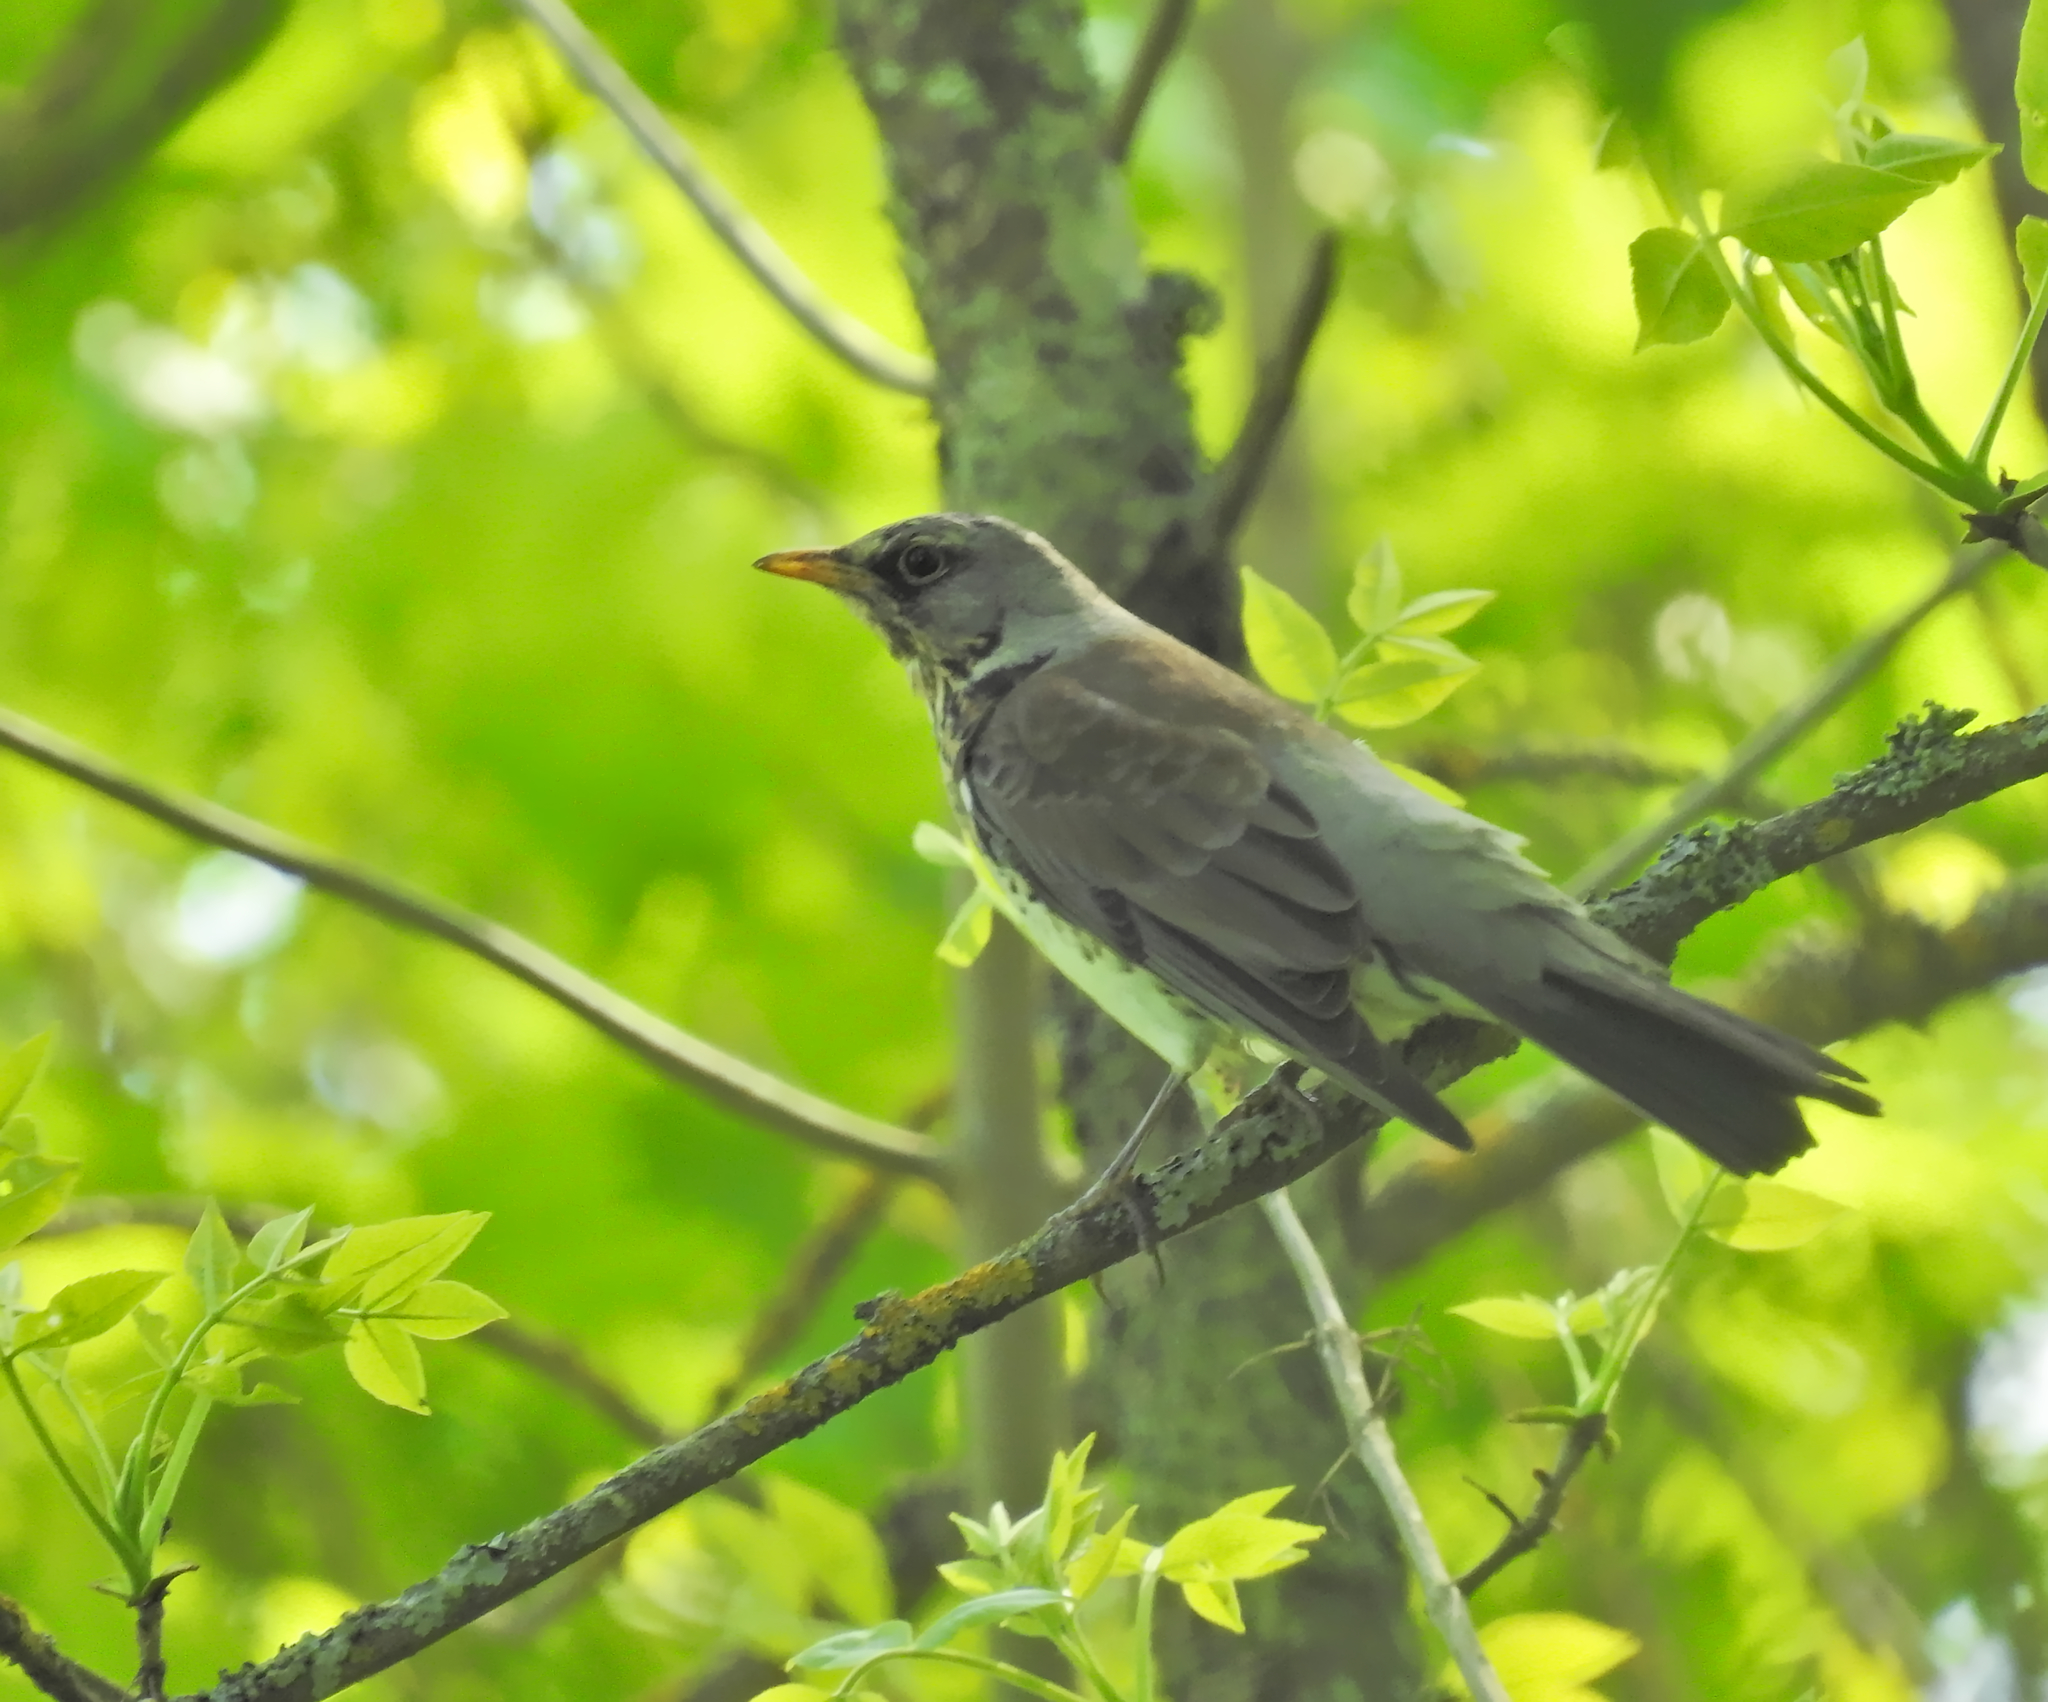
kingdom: Animalia
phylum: Chordata
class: Aves
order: Passeriformes
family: Turdidae
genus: Turdus
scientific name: Turdus pilaris
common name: Fieldfare
